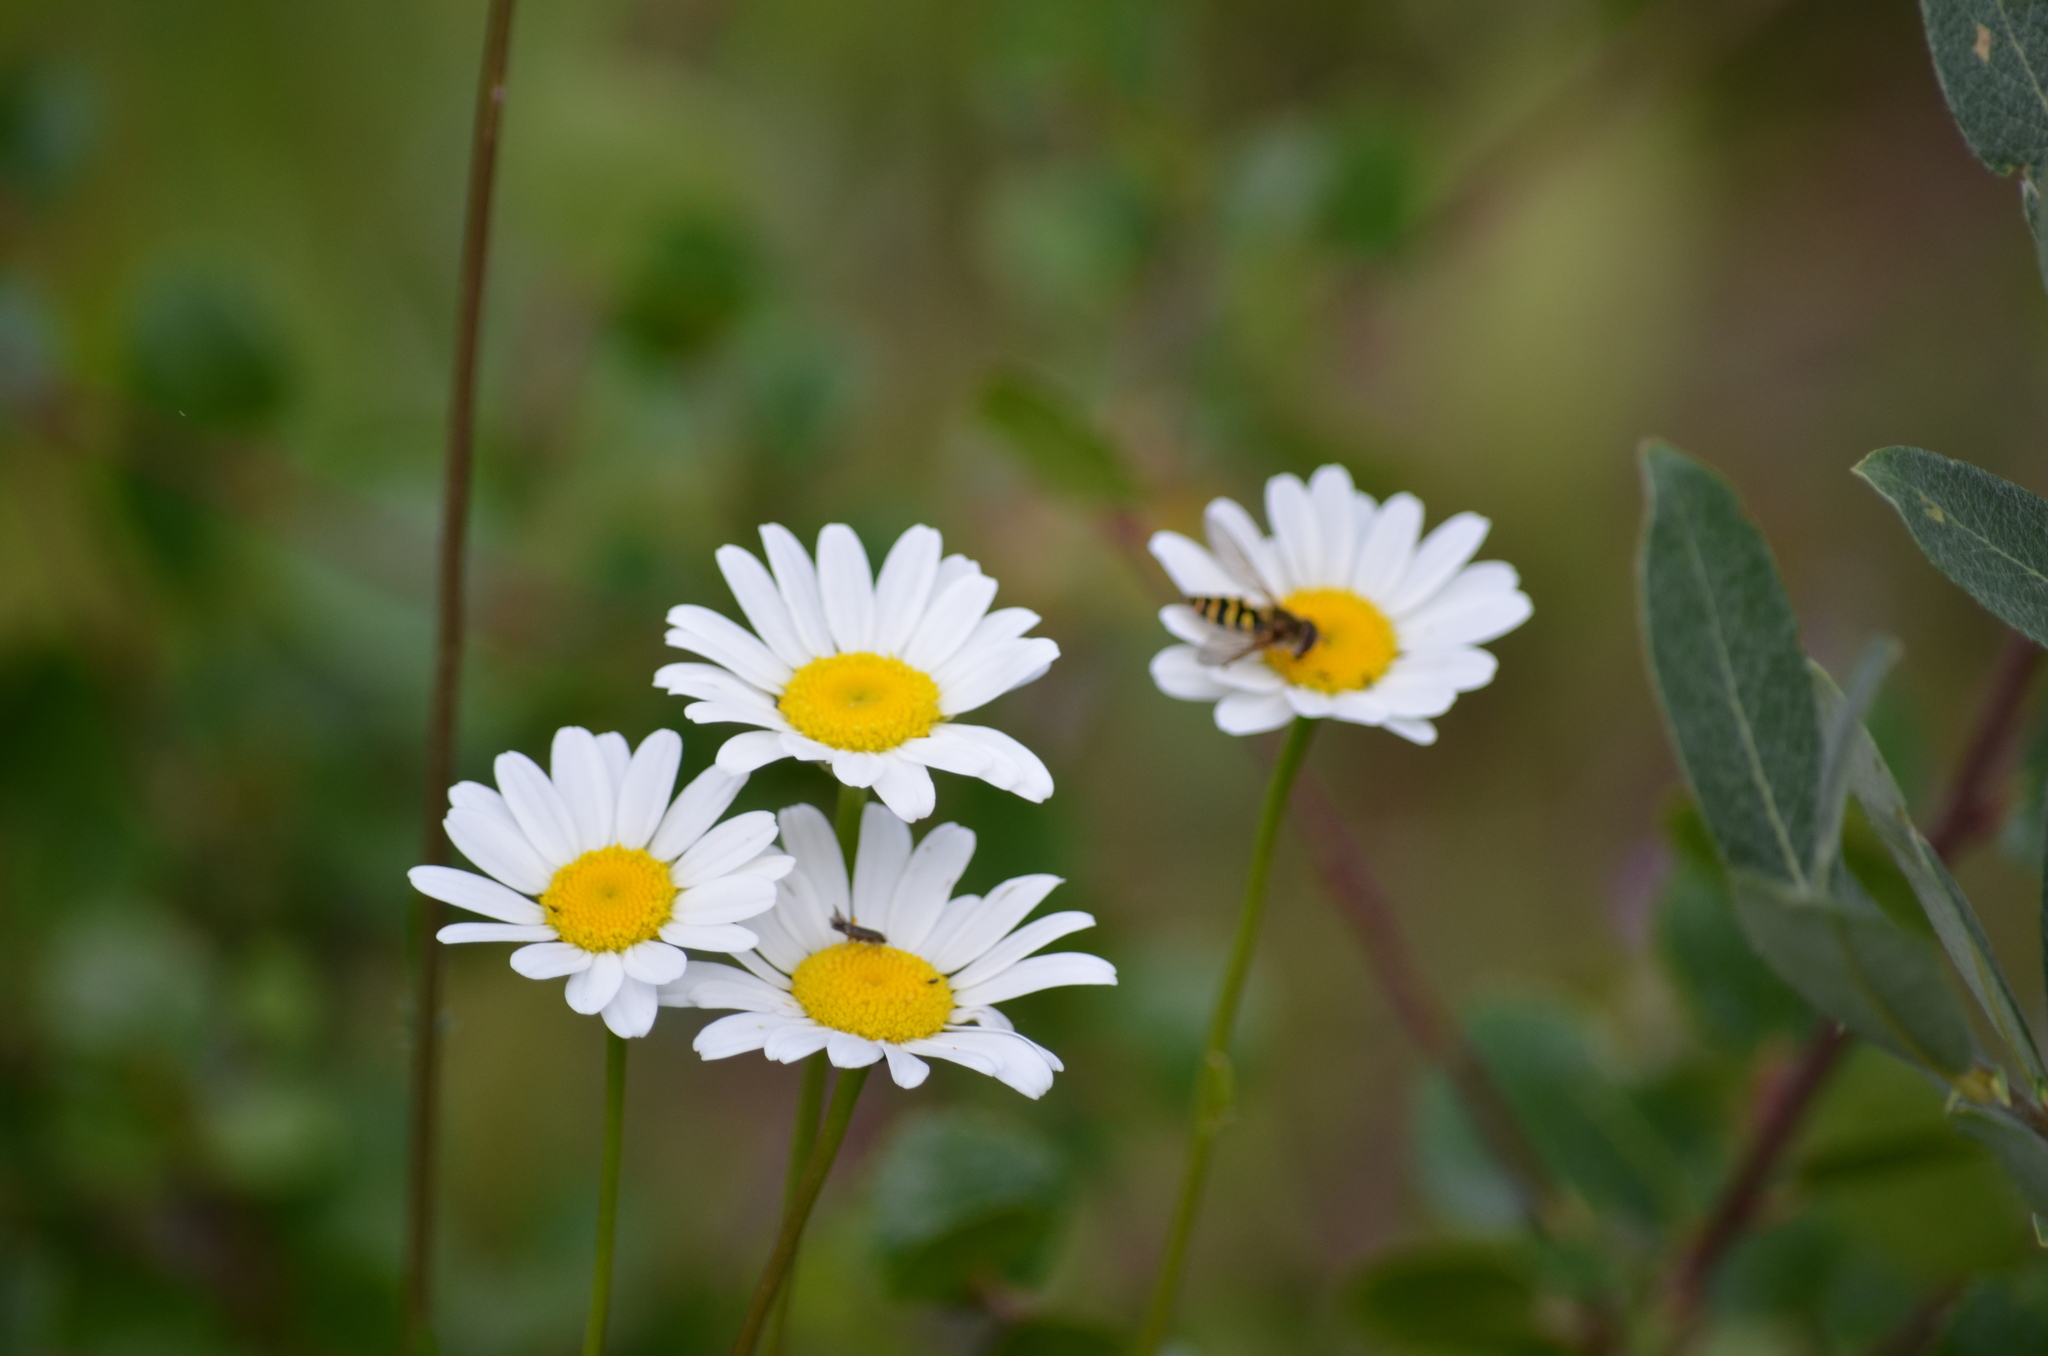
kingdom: Animalia
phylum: Arthropoda
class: Insecta
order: Diptera
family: Syrphidae
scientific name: Syrphidae
